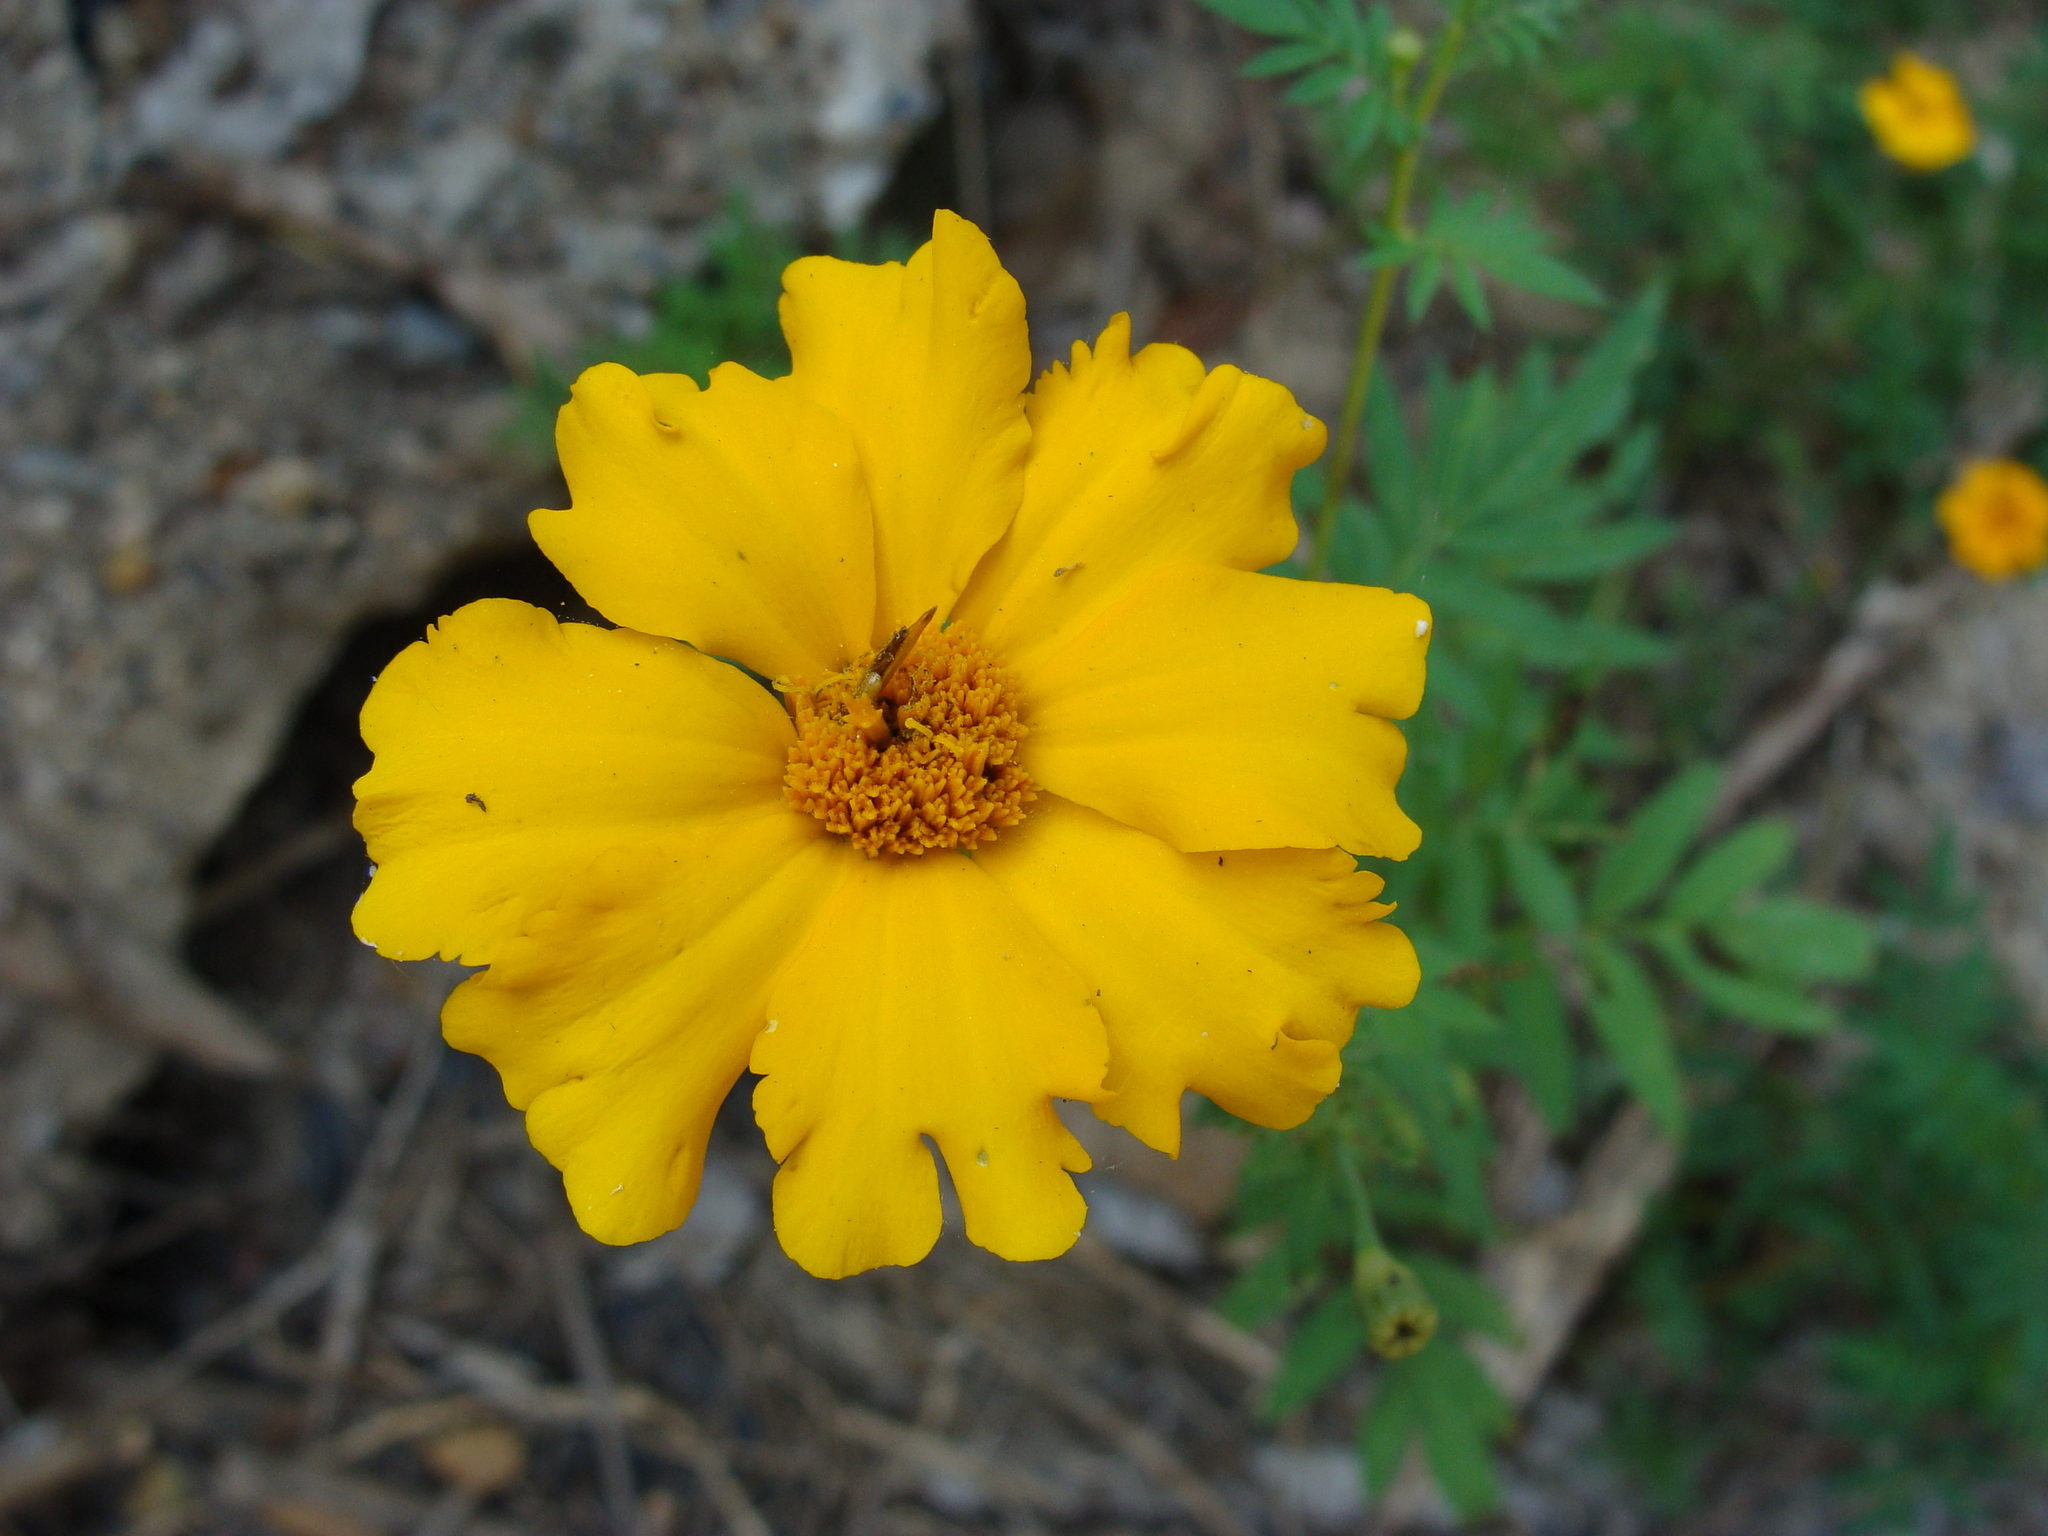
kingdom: Plantae
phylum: Tracheophyta
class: Magnoliopsida
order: Asterales
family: Asteraceae
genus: Tagetes
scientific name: Tagetes erecta
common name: African marigold
